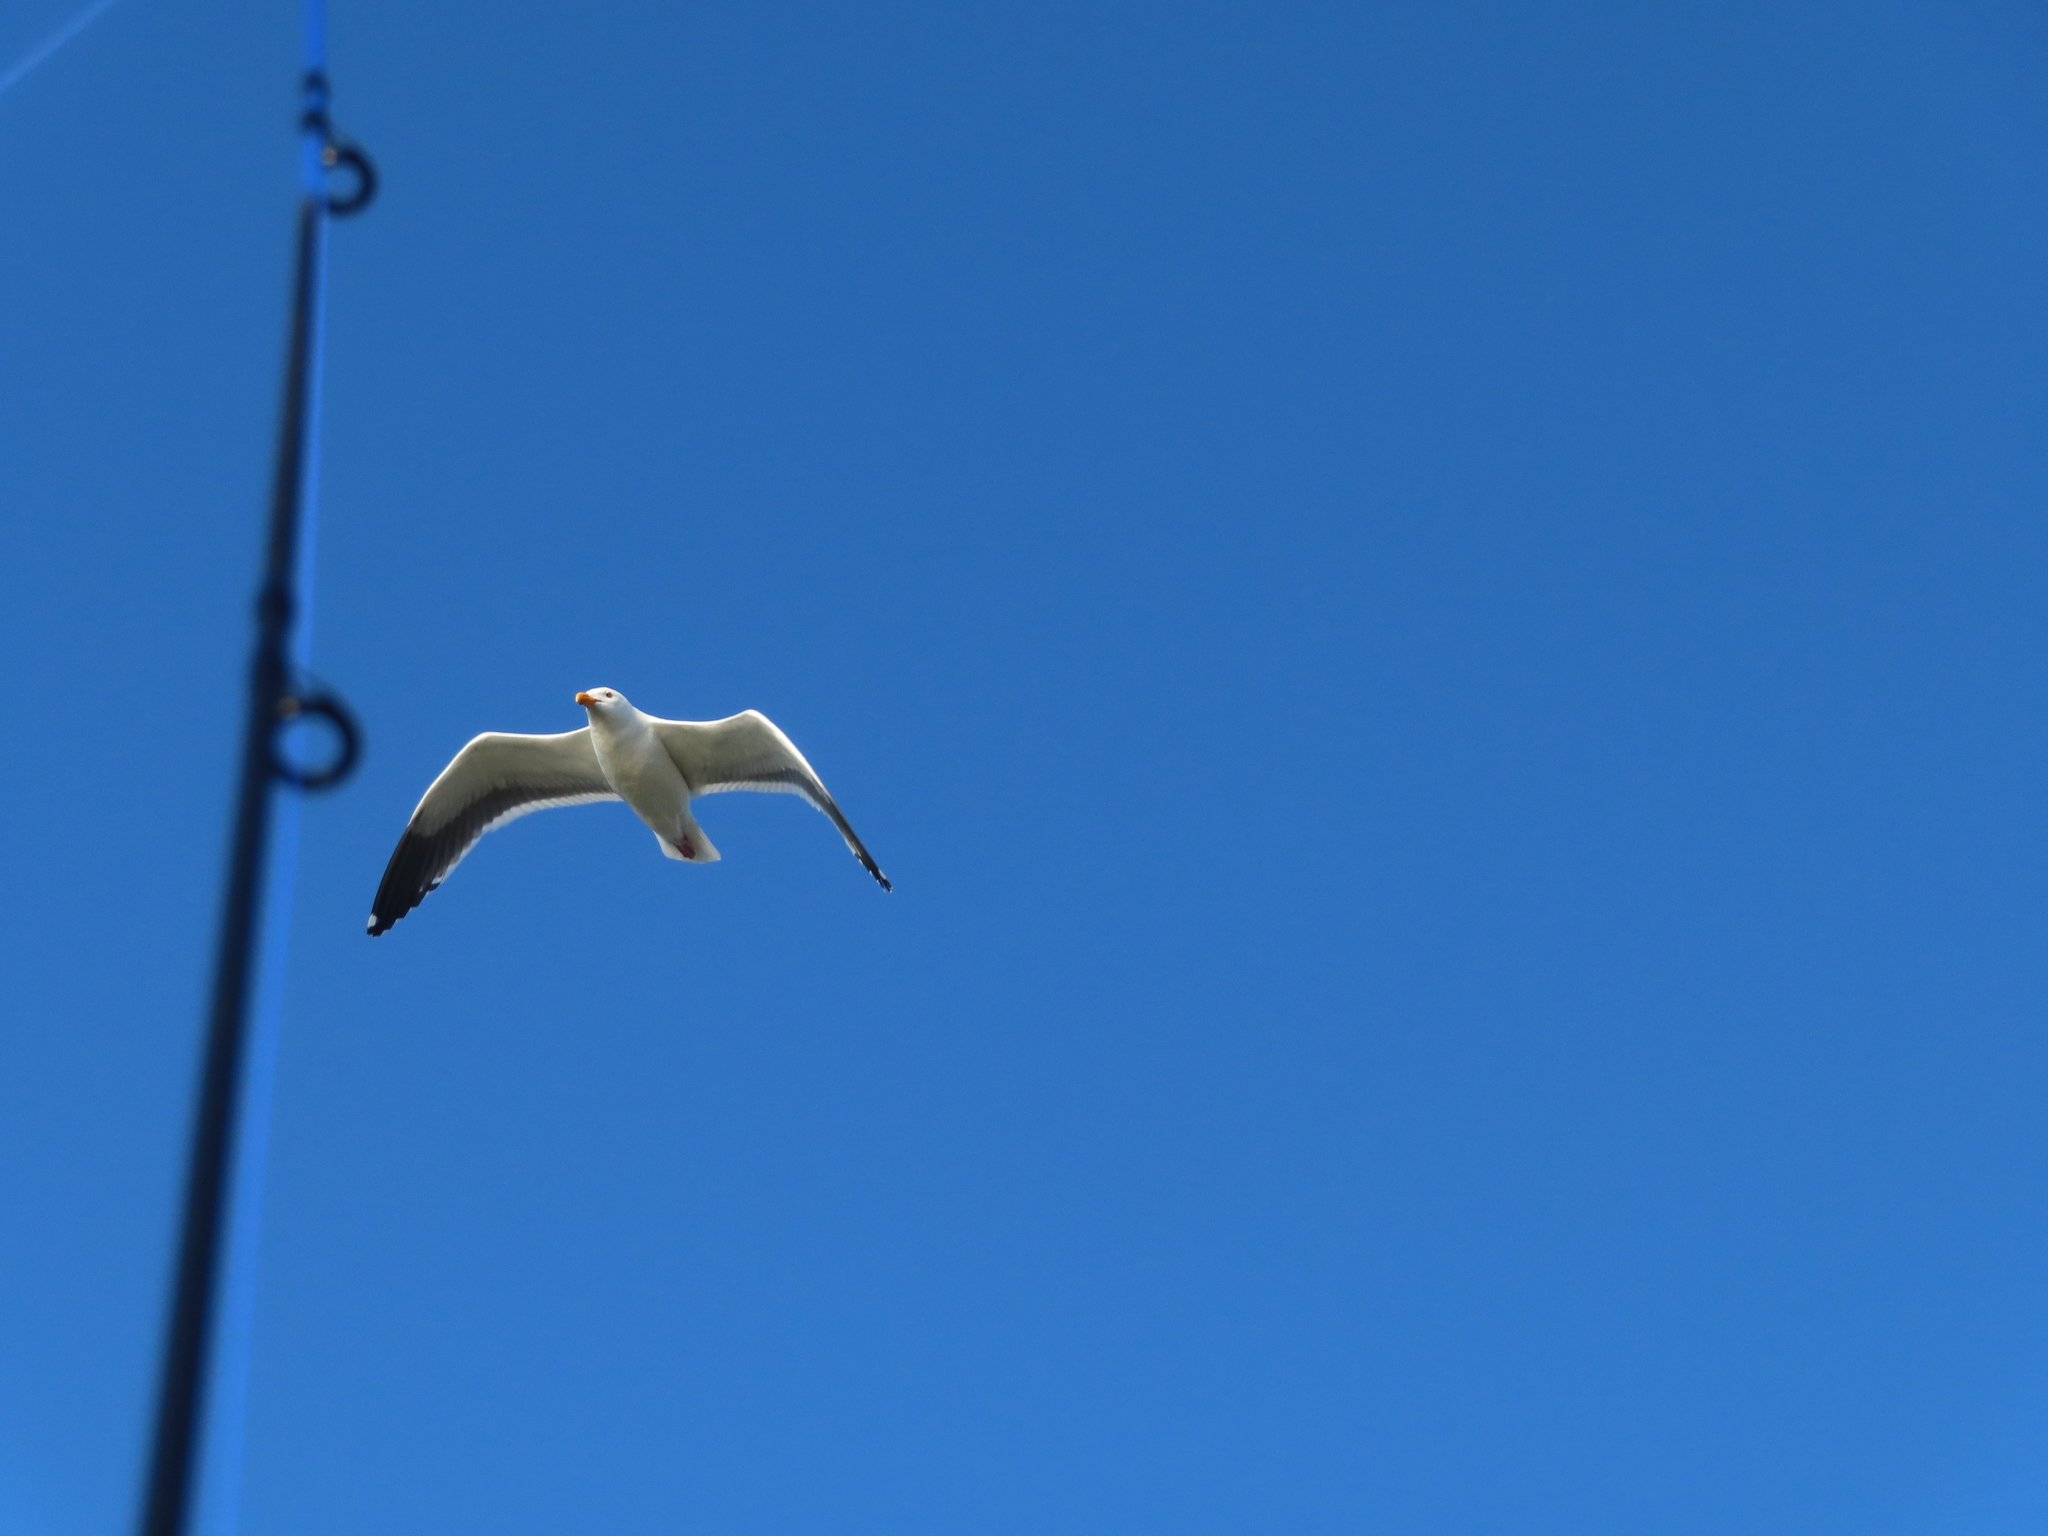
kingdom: Animalia
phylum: Chordata
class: Aves
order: Charadriiformes
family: Laridae
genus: Larus
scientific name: Larus occidentalis
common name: Western gull
